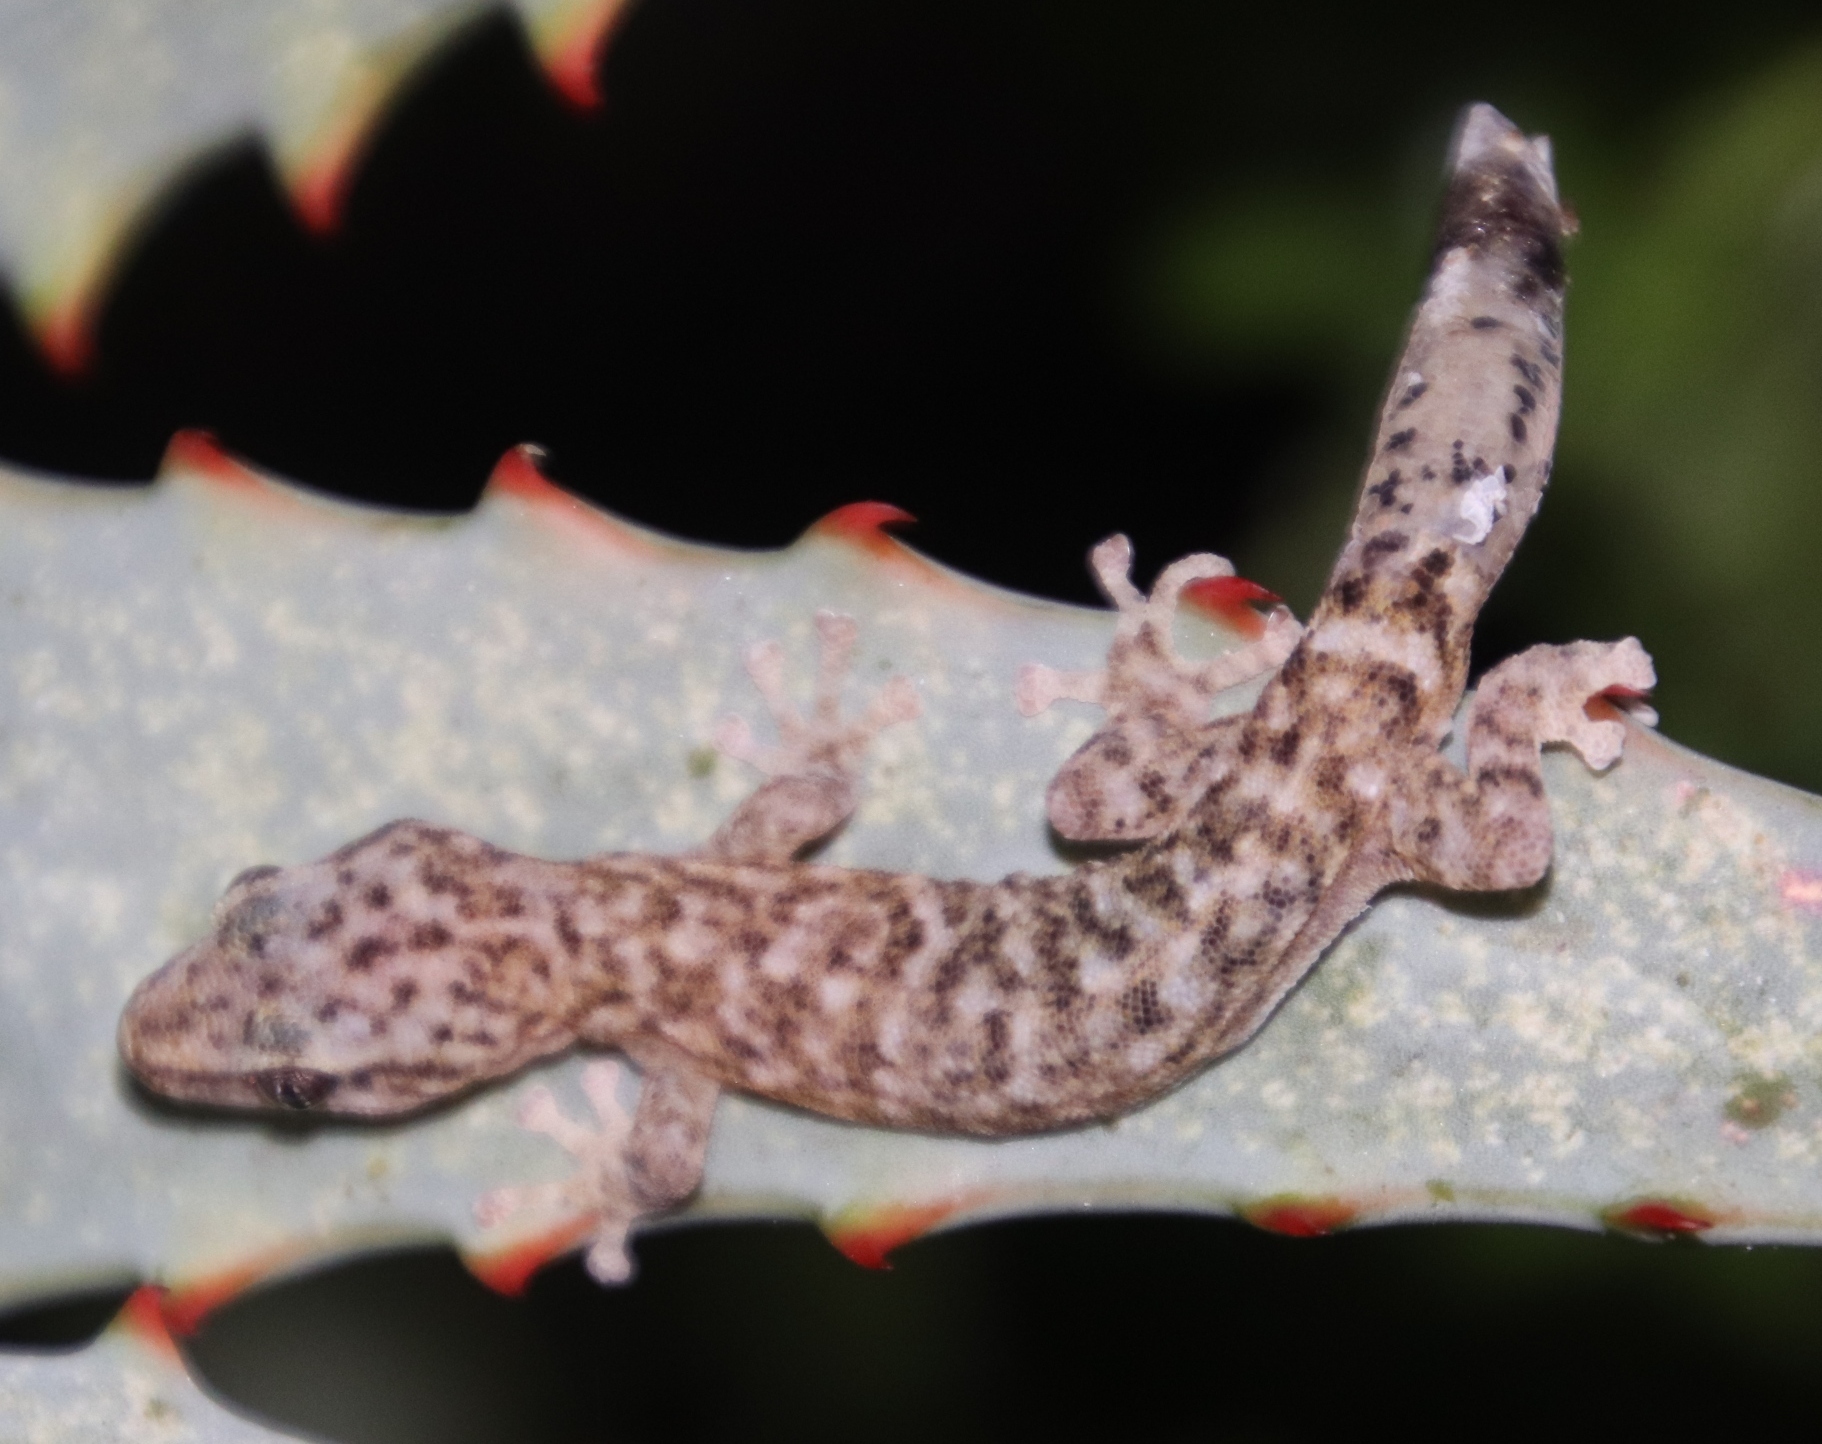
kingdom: Animalia
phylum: Chordata
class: Squamata
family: Gekkonidae
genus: Afrogecko
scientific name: Afrogecko porphyreus
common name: Marbled leaf-toed gecko
